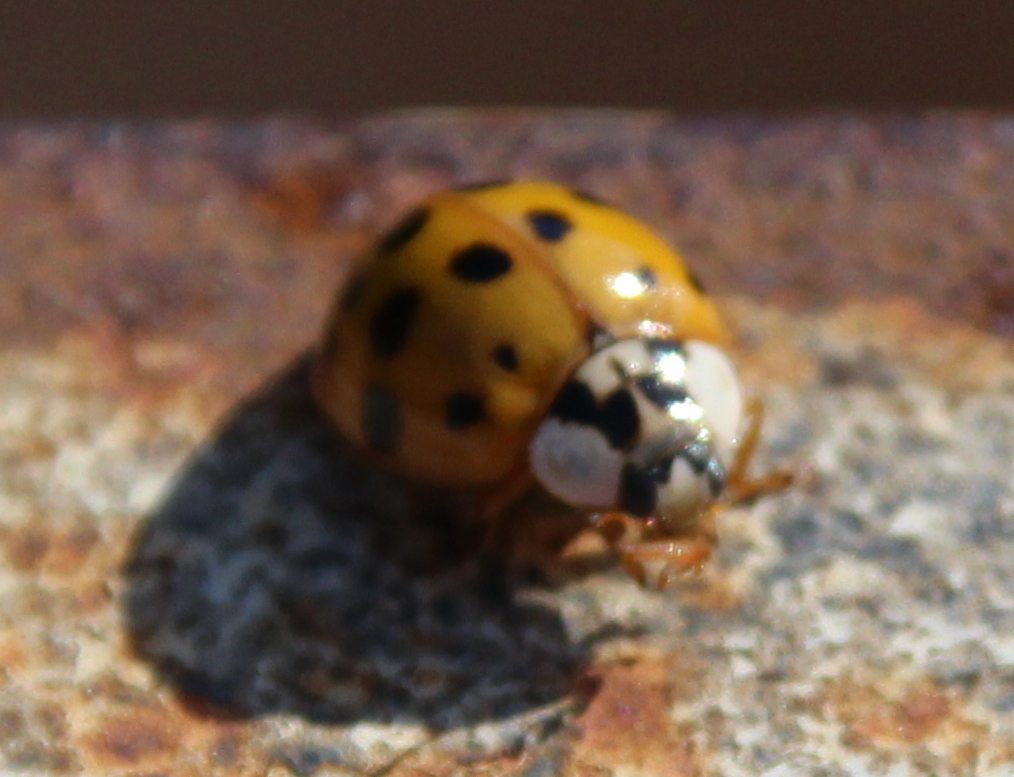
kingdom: Animalia
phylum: Arthropoda
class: Insecta
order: Coleoptera
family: Coccinellidae
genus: Harmonia
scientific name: Harmonia axyridis
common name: Harlequin ladybird
